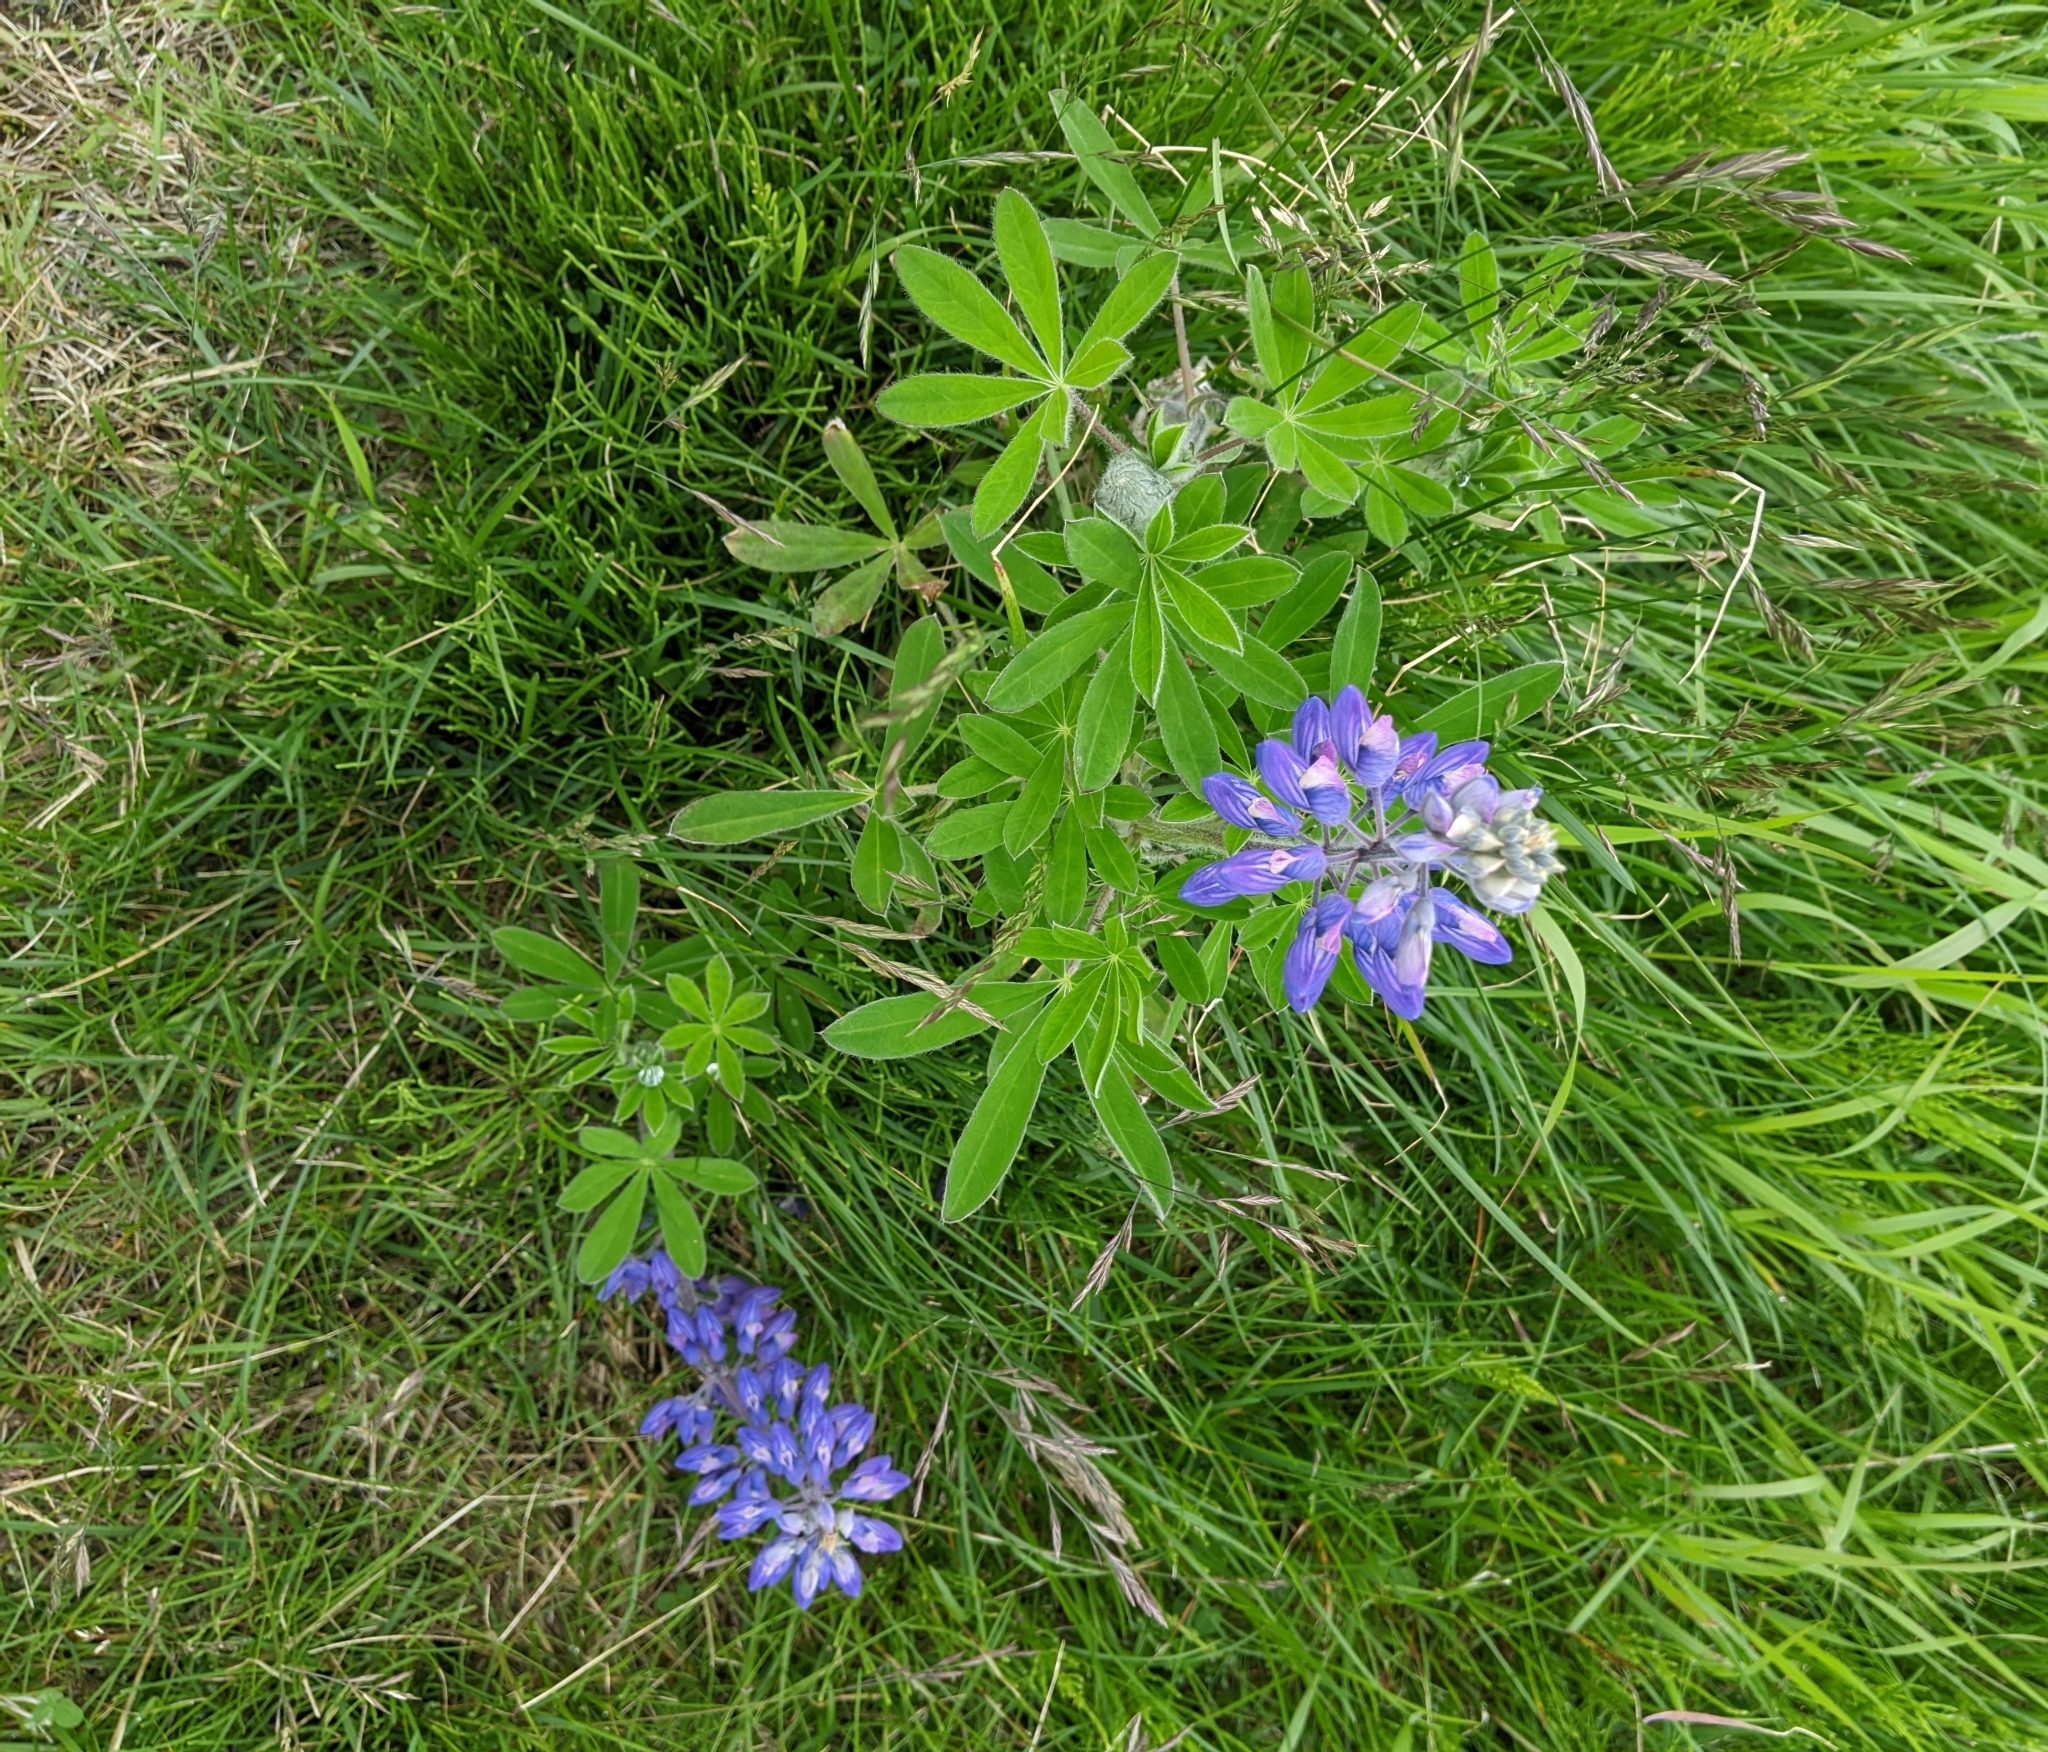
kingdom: Plantae
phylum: Tracheophyta
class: Magnoliopsida
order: Fabales
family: Fabaceae
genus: Lupinus
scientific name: Lupinus nootkatensis
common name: Nootka lupine
